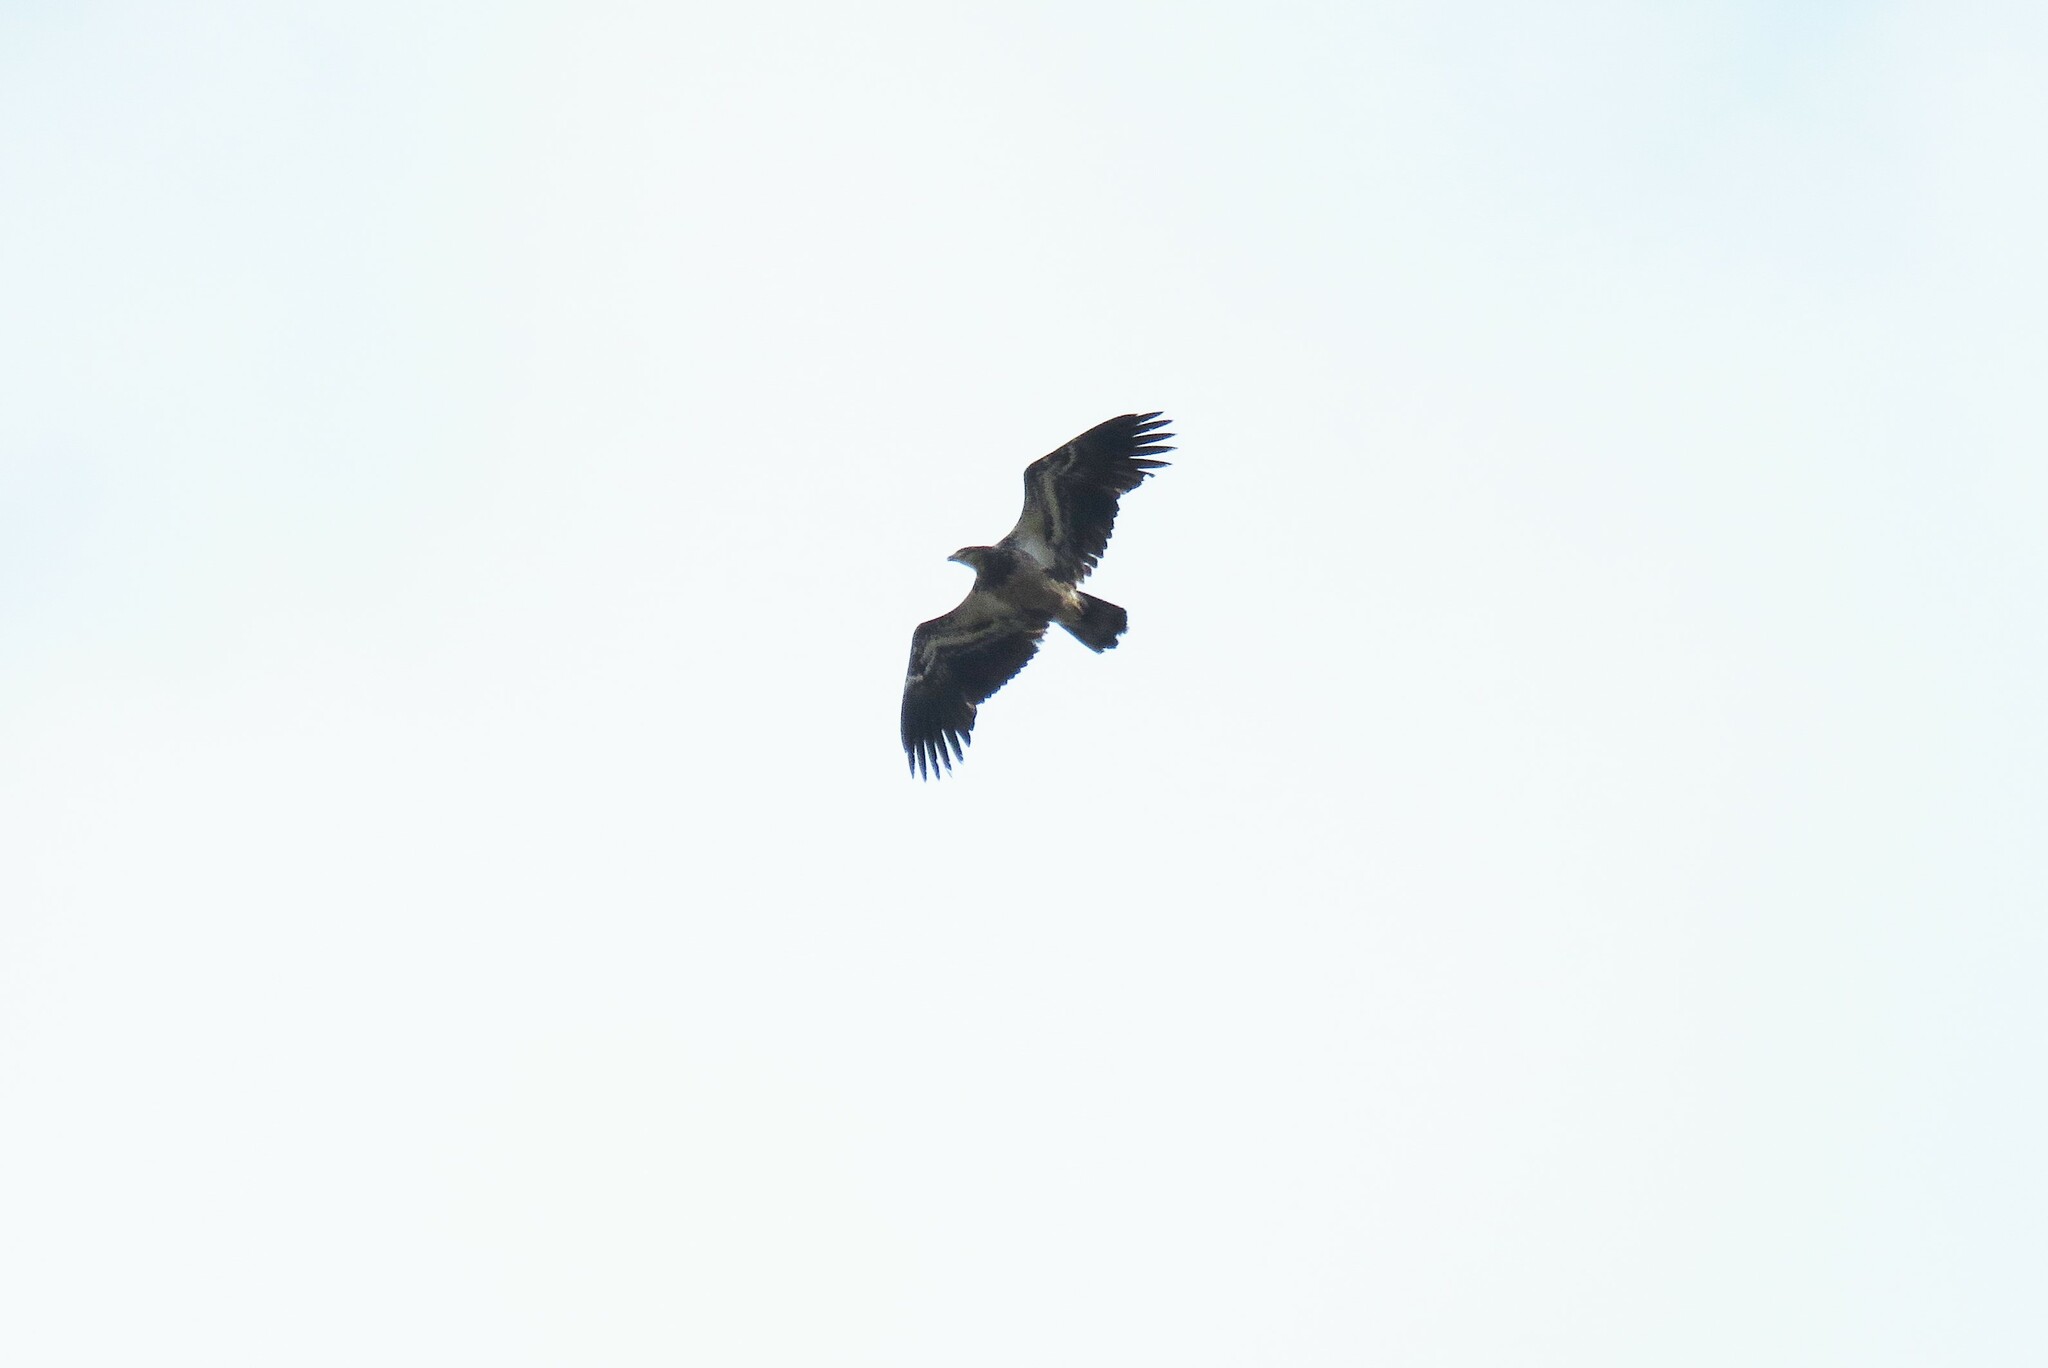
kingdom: Animalia
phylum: Chordata
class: Aves
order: Accipitriformes
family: Accipitridae
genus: Haliaeetus
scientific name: Haliaeetus leucocephalus
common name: Bald eagle
